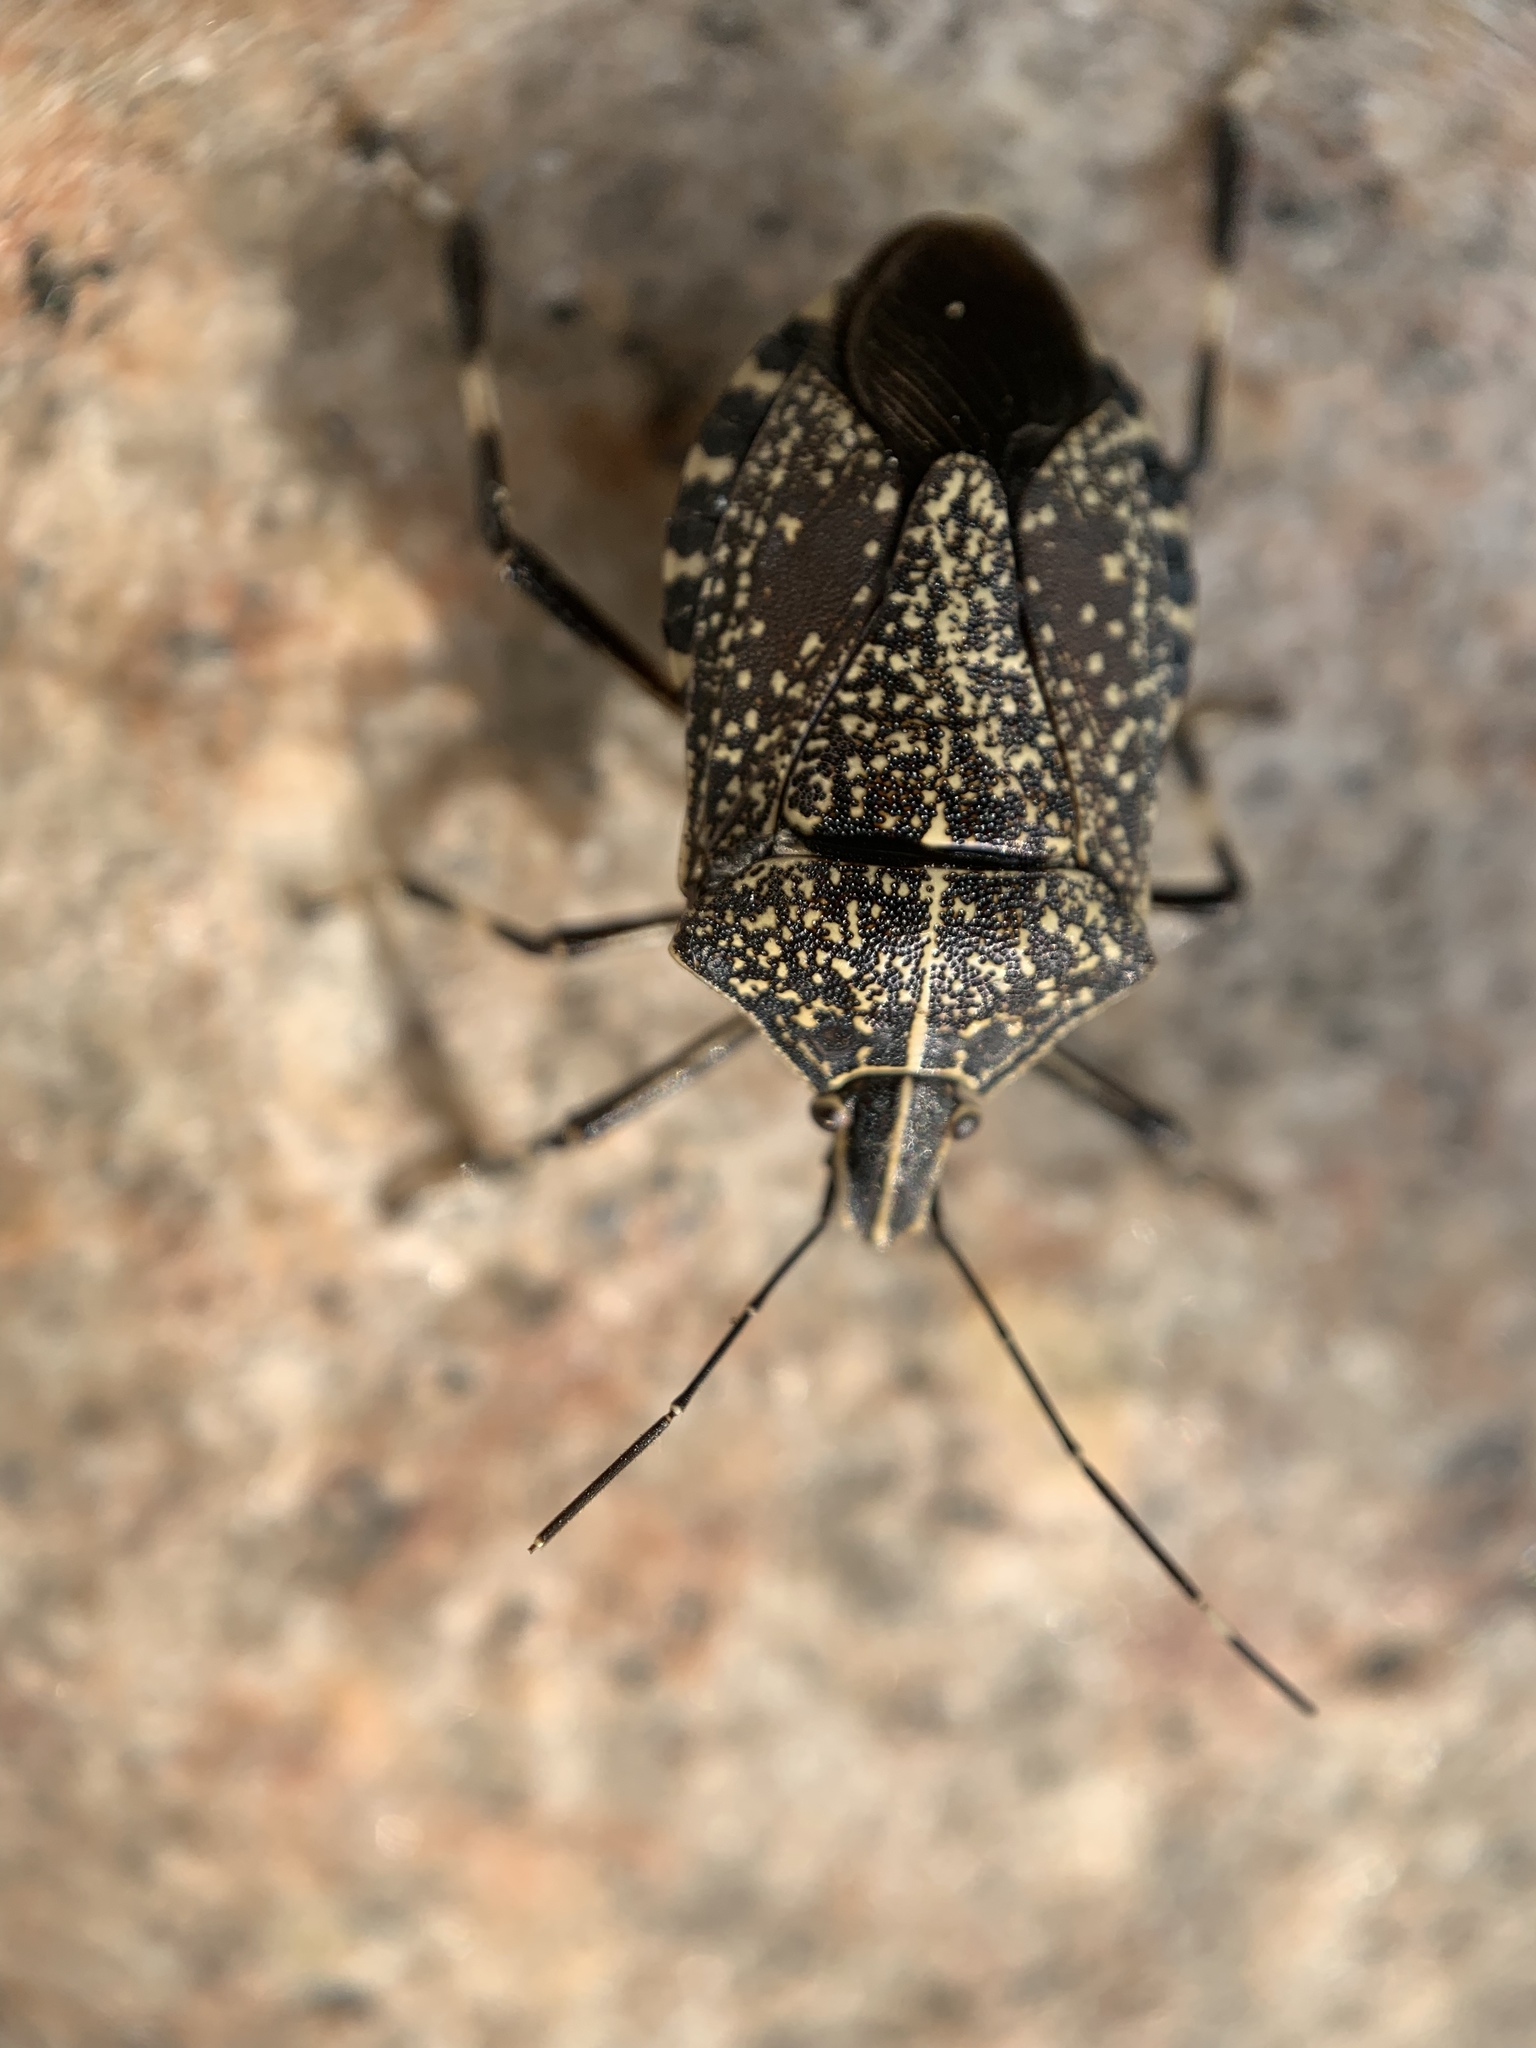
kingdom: Animalia
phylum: Arthropoda
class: Insecta
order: Hemiptera
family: Pentatomidae
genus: Erthesina
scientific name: Erthesina fullo
